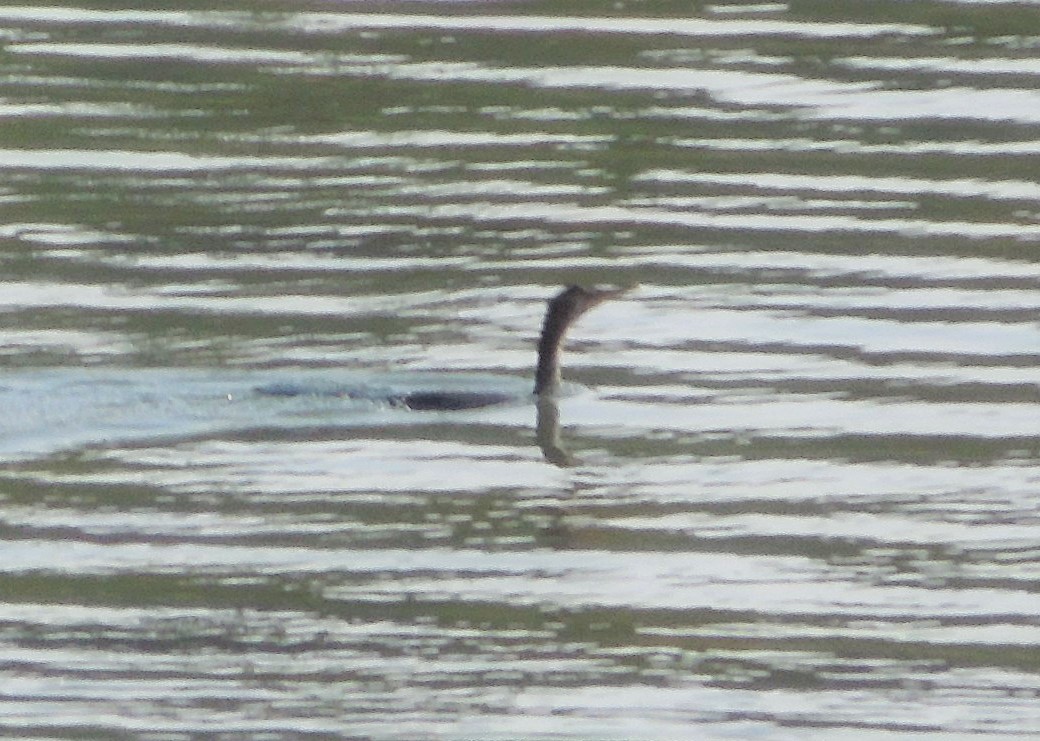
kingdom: Animalia
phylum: Chordata
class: Aves
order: Suliformes
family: Phalacrocoracidae
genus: Phalacrocorax
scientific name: Phalacrocorax auritus
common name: Double-crested cormorant
